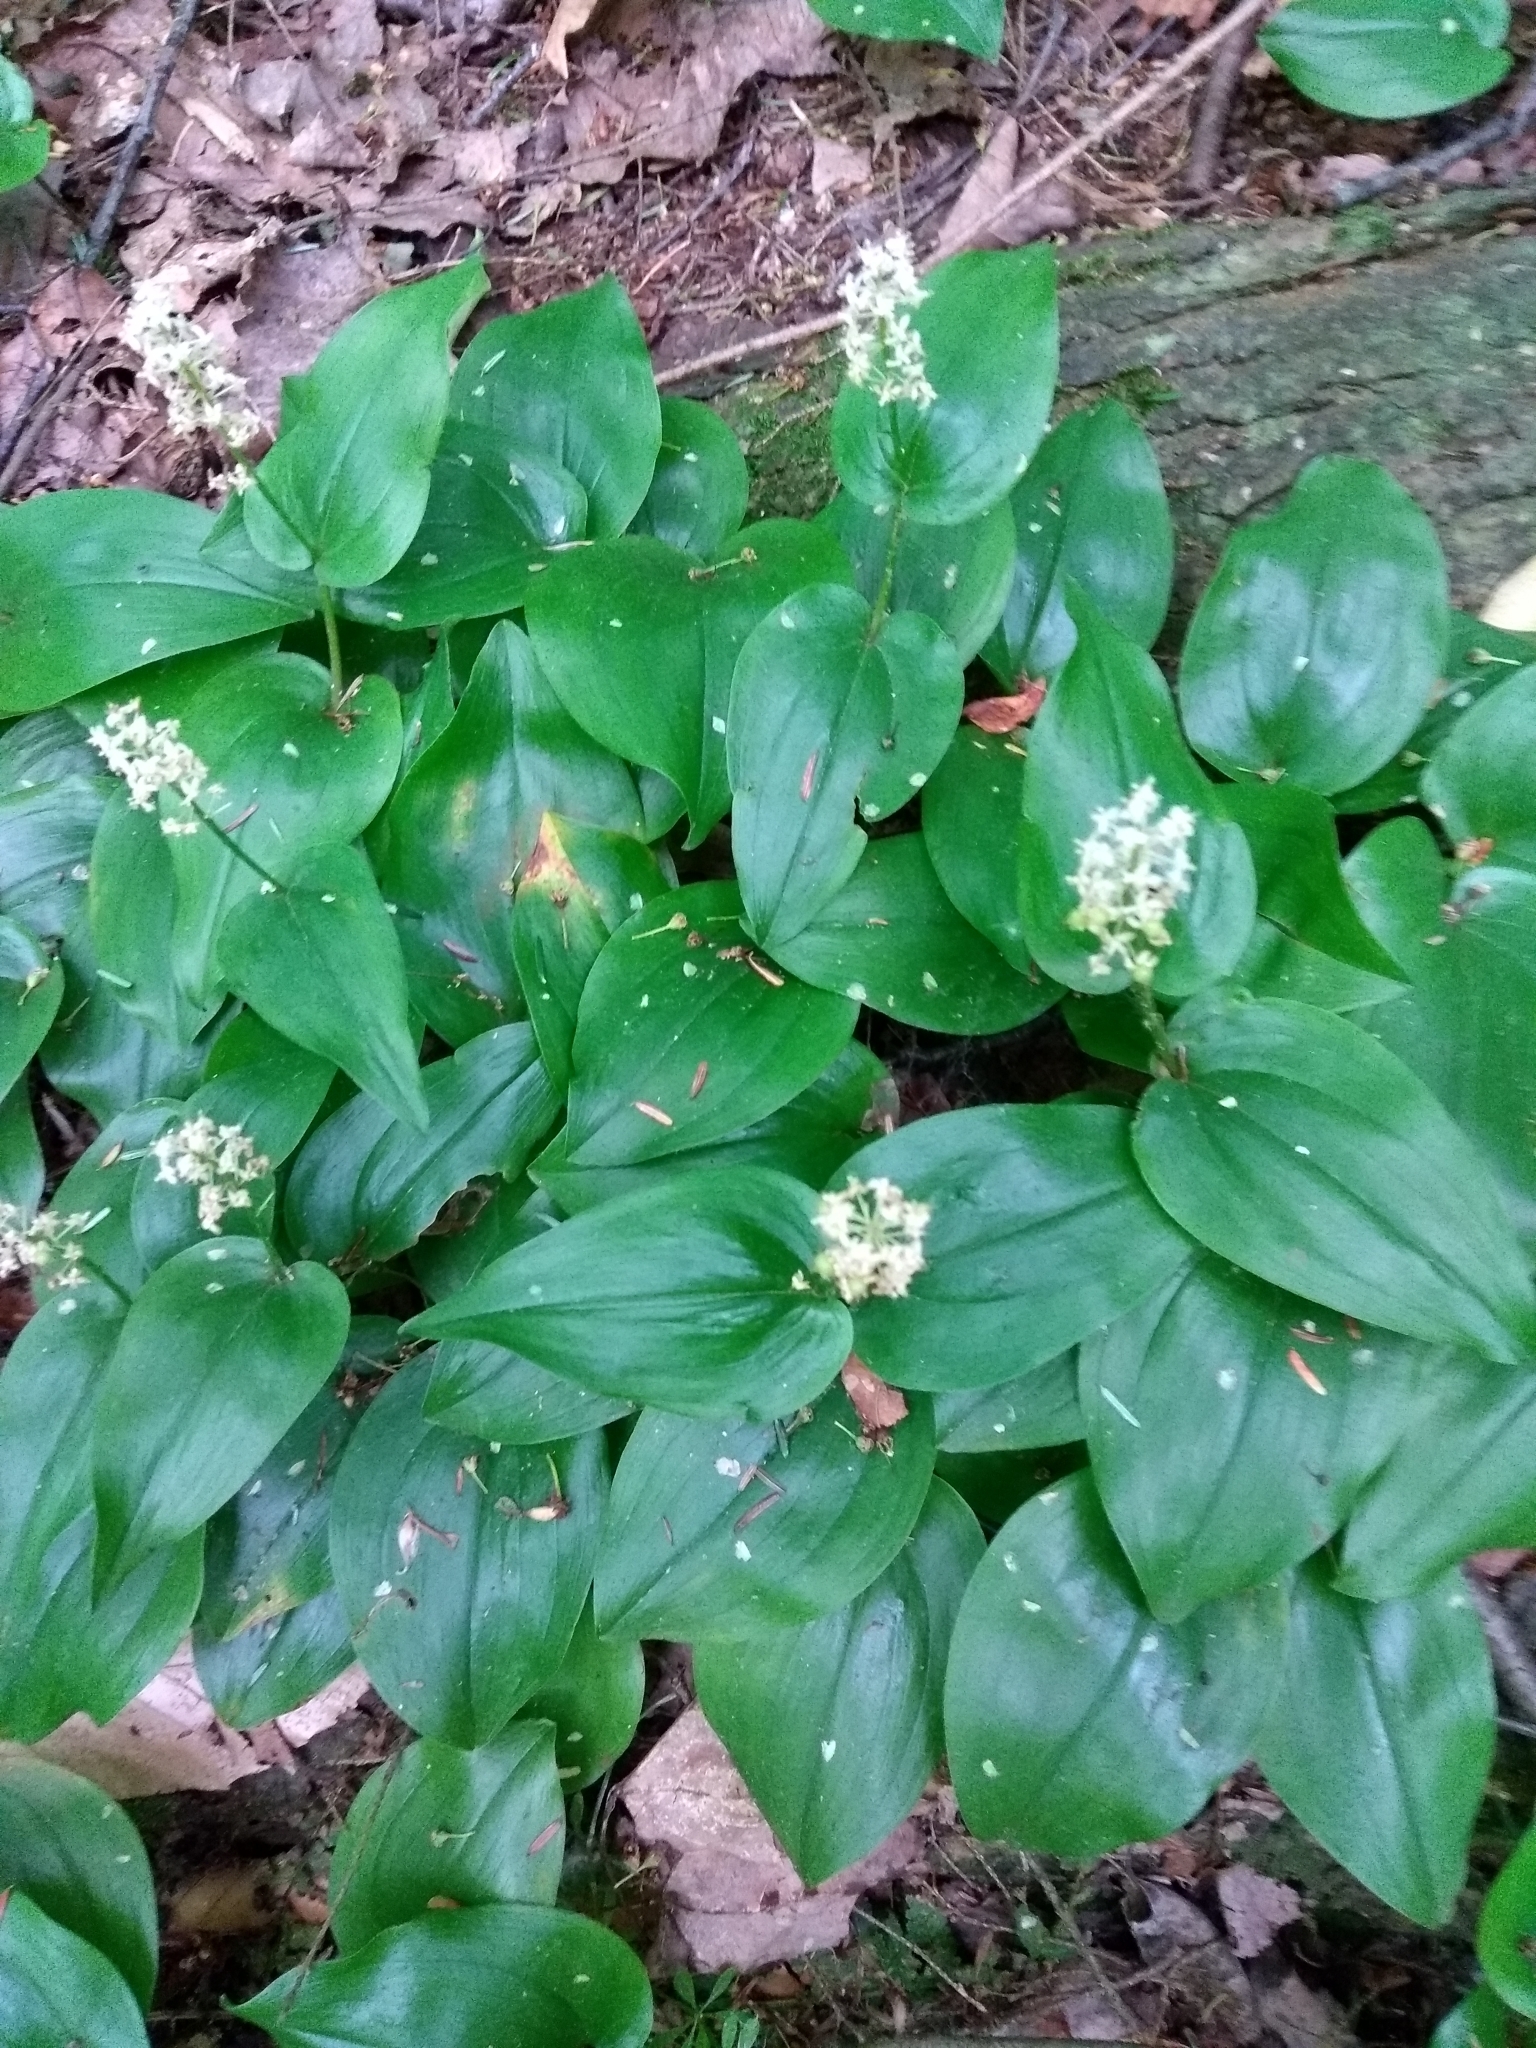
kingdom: Plantae
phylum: Tracheophyta
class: Liliopsida
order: Asparagales
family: Asparagaceae
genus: Maianthemum
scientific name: Maianthemum canadense
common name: False lily-of-the-valley
